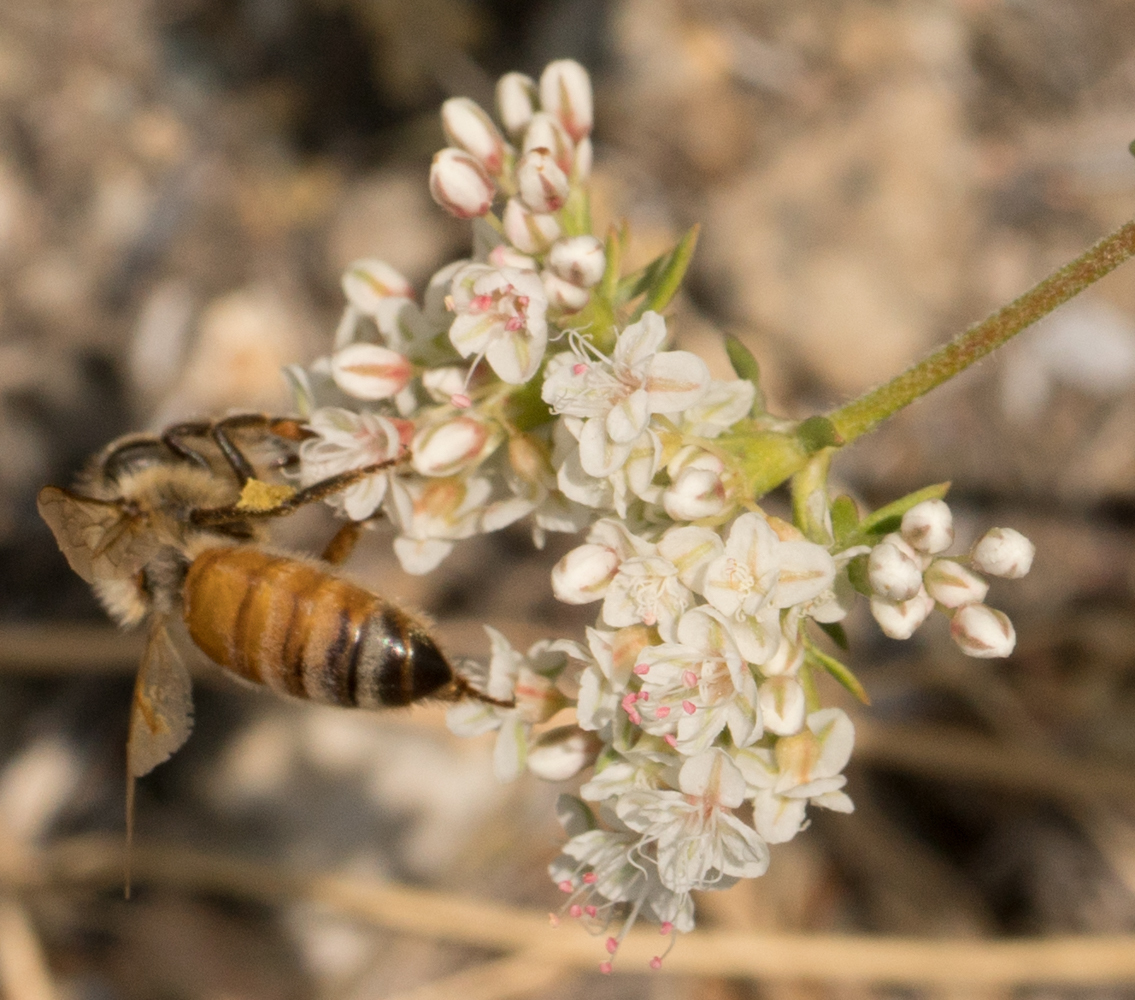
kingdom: Animalia
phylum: Arthropoda
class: Insecta
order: Hymenoptera
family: Apidae
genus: Apis
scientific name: Apis mellifera
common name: Honey bee
